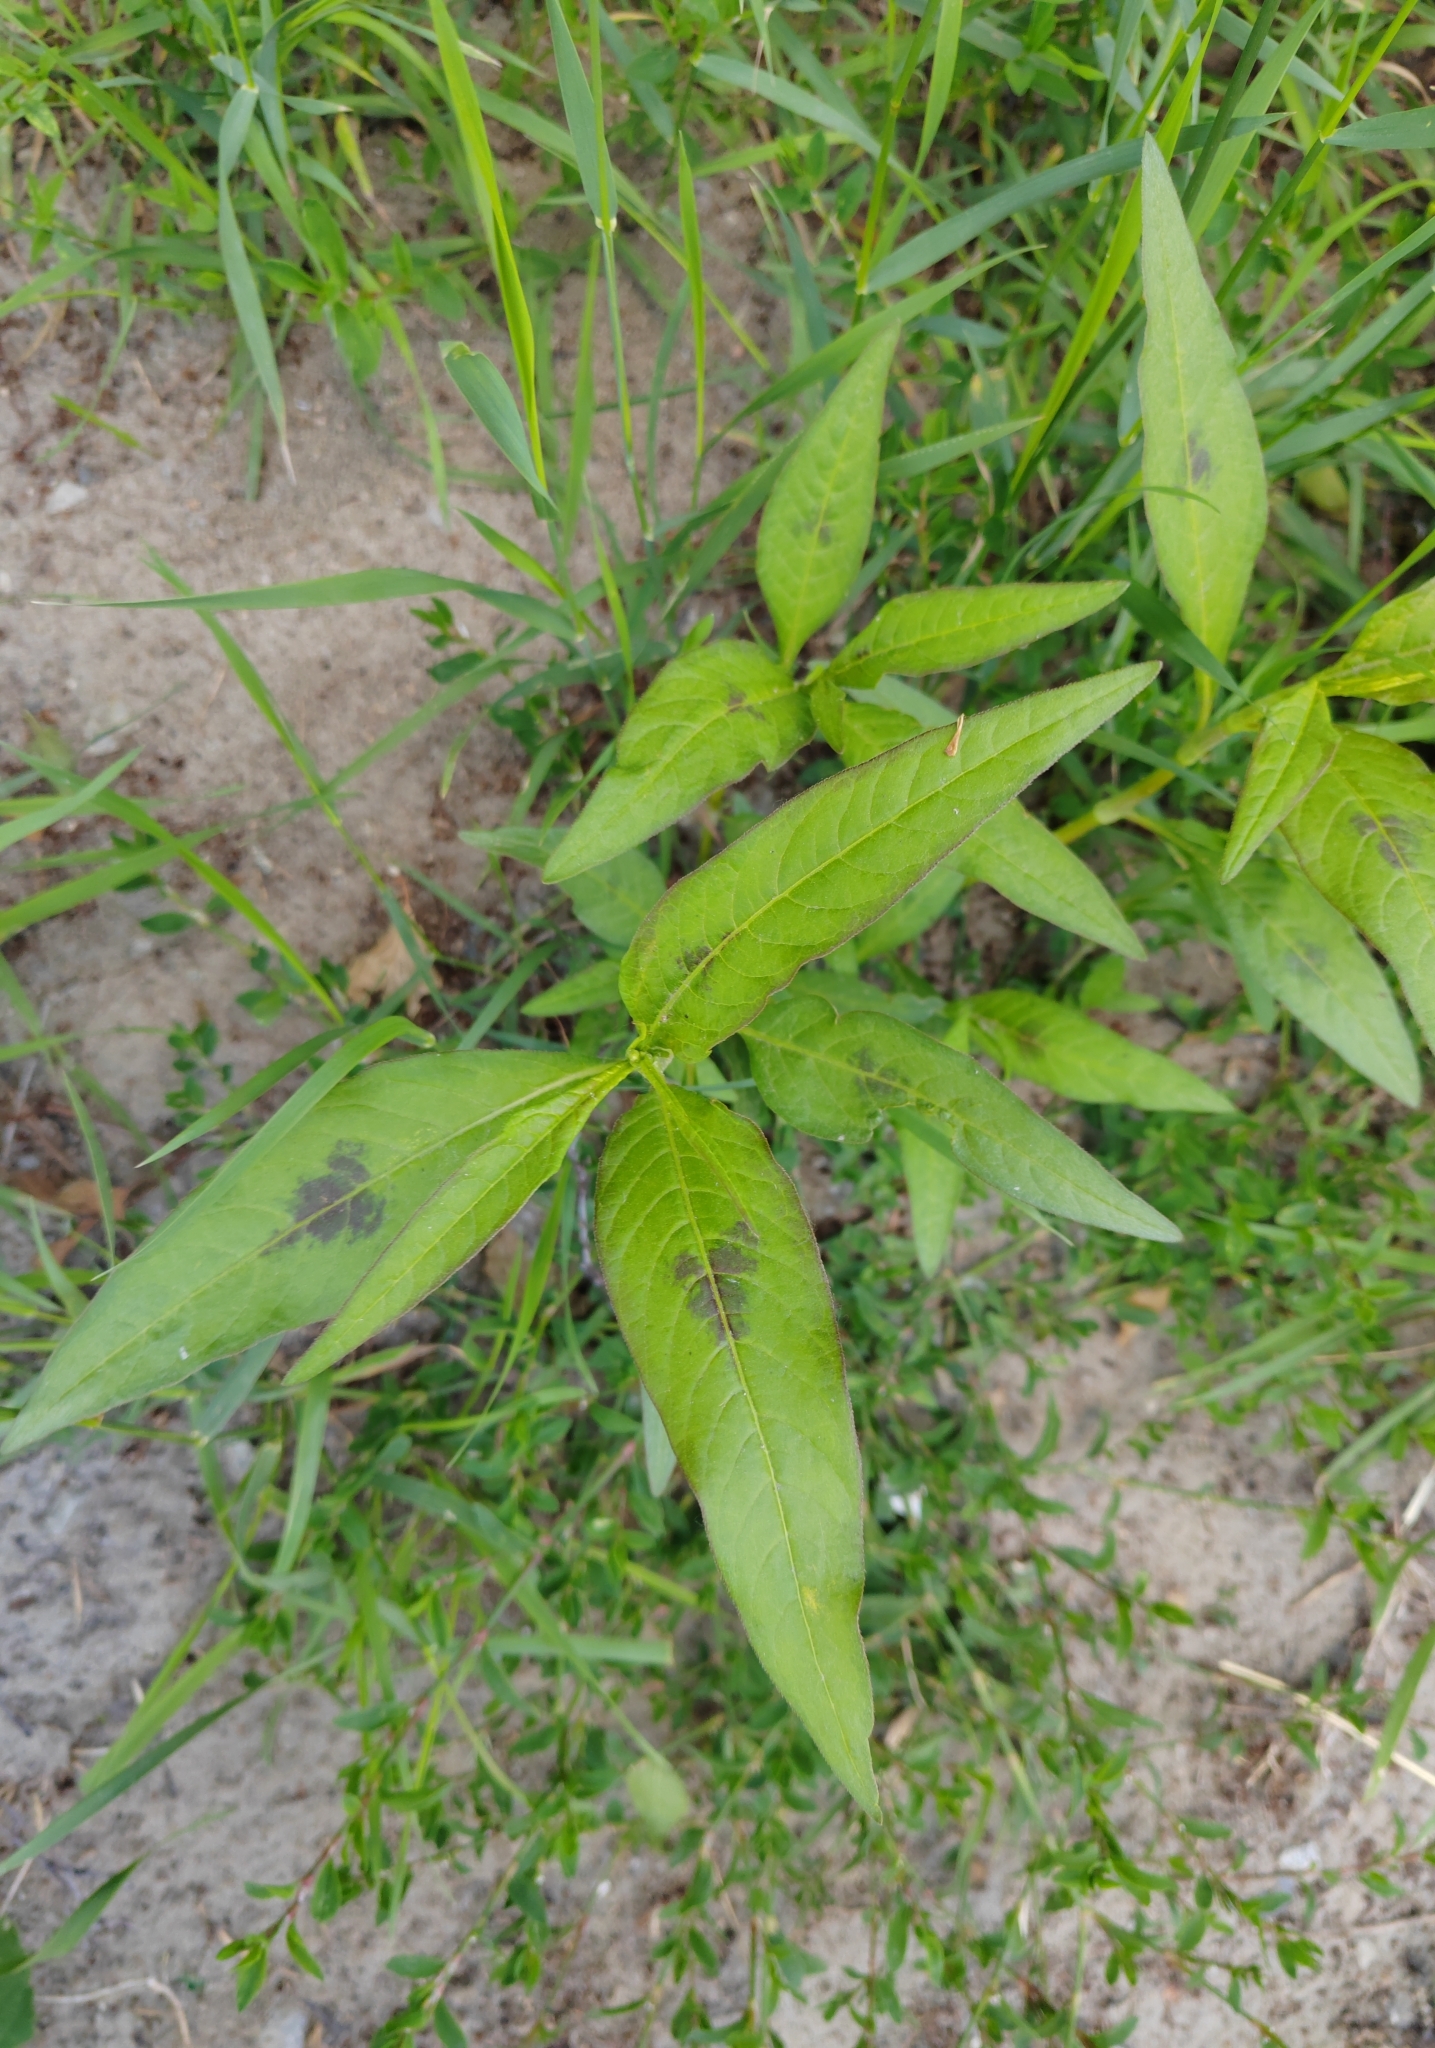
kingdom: Plantae
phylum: Tracheophyta
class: Magnoliopsida
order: Caryophyllales
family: Polygonaceae
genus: Persicaria
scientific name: Persicaria lapathifolia
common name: Curlytop knotweed
